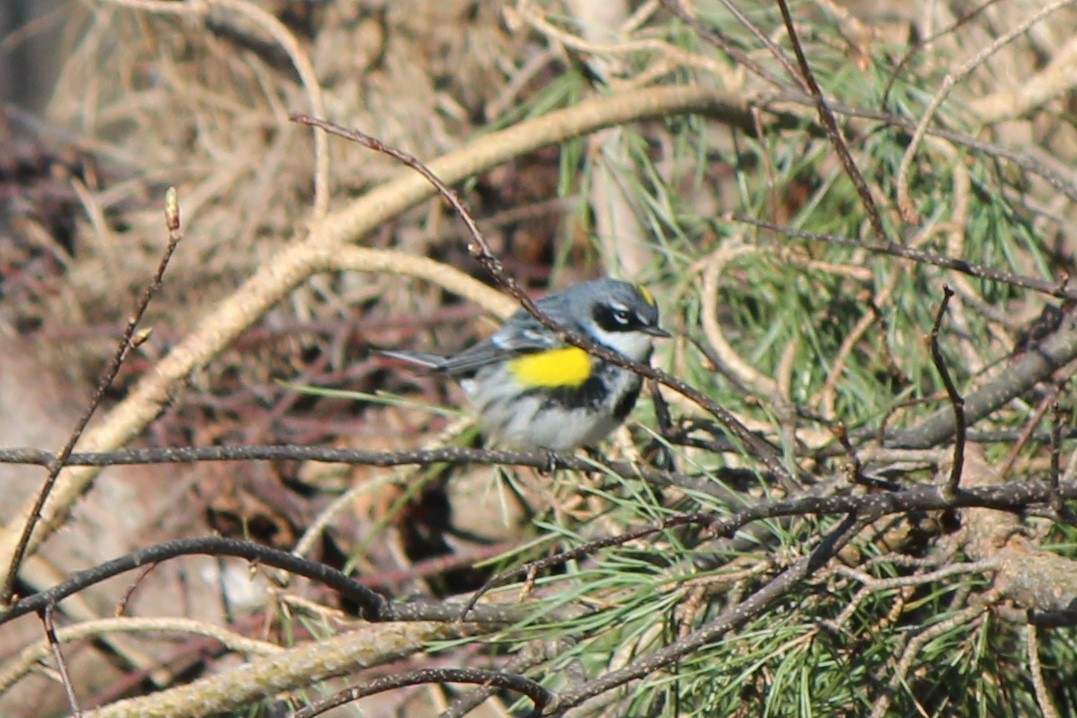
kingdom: Animalia
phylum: Chordata
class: Aves
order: Passeriformes
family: Parulidae
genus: Setophaga
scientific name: Setophaga coronata
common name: Myrtle warbler
